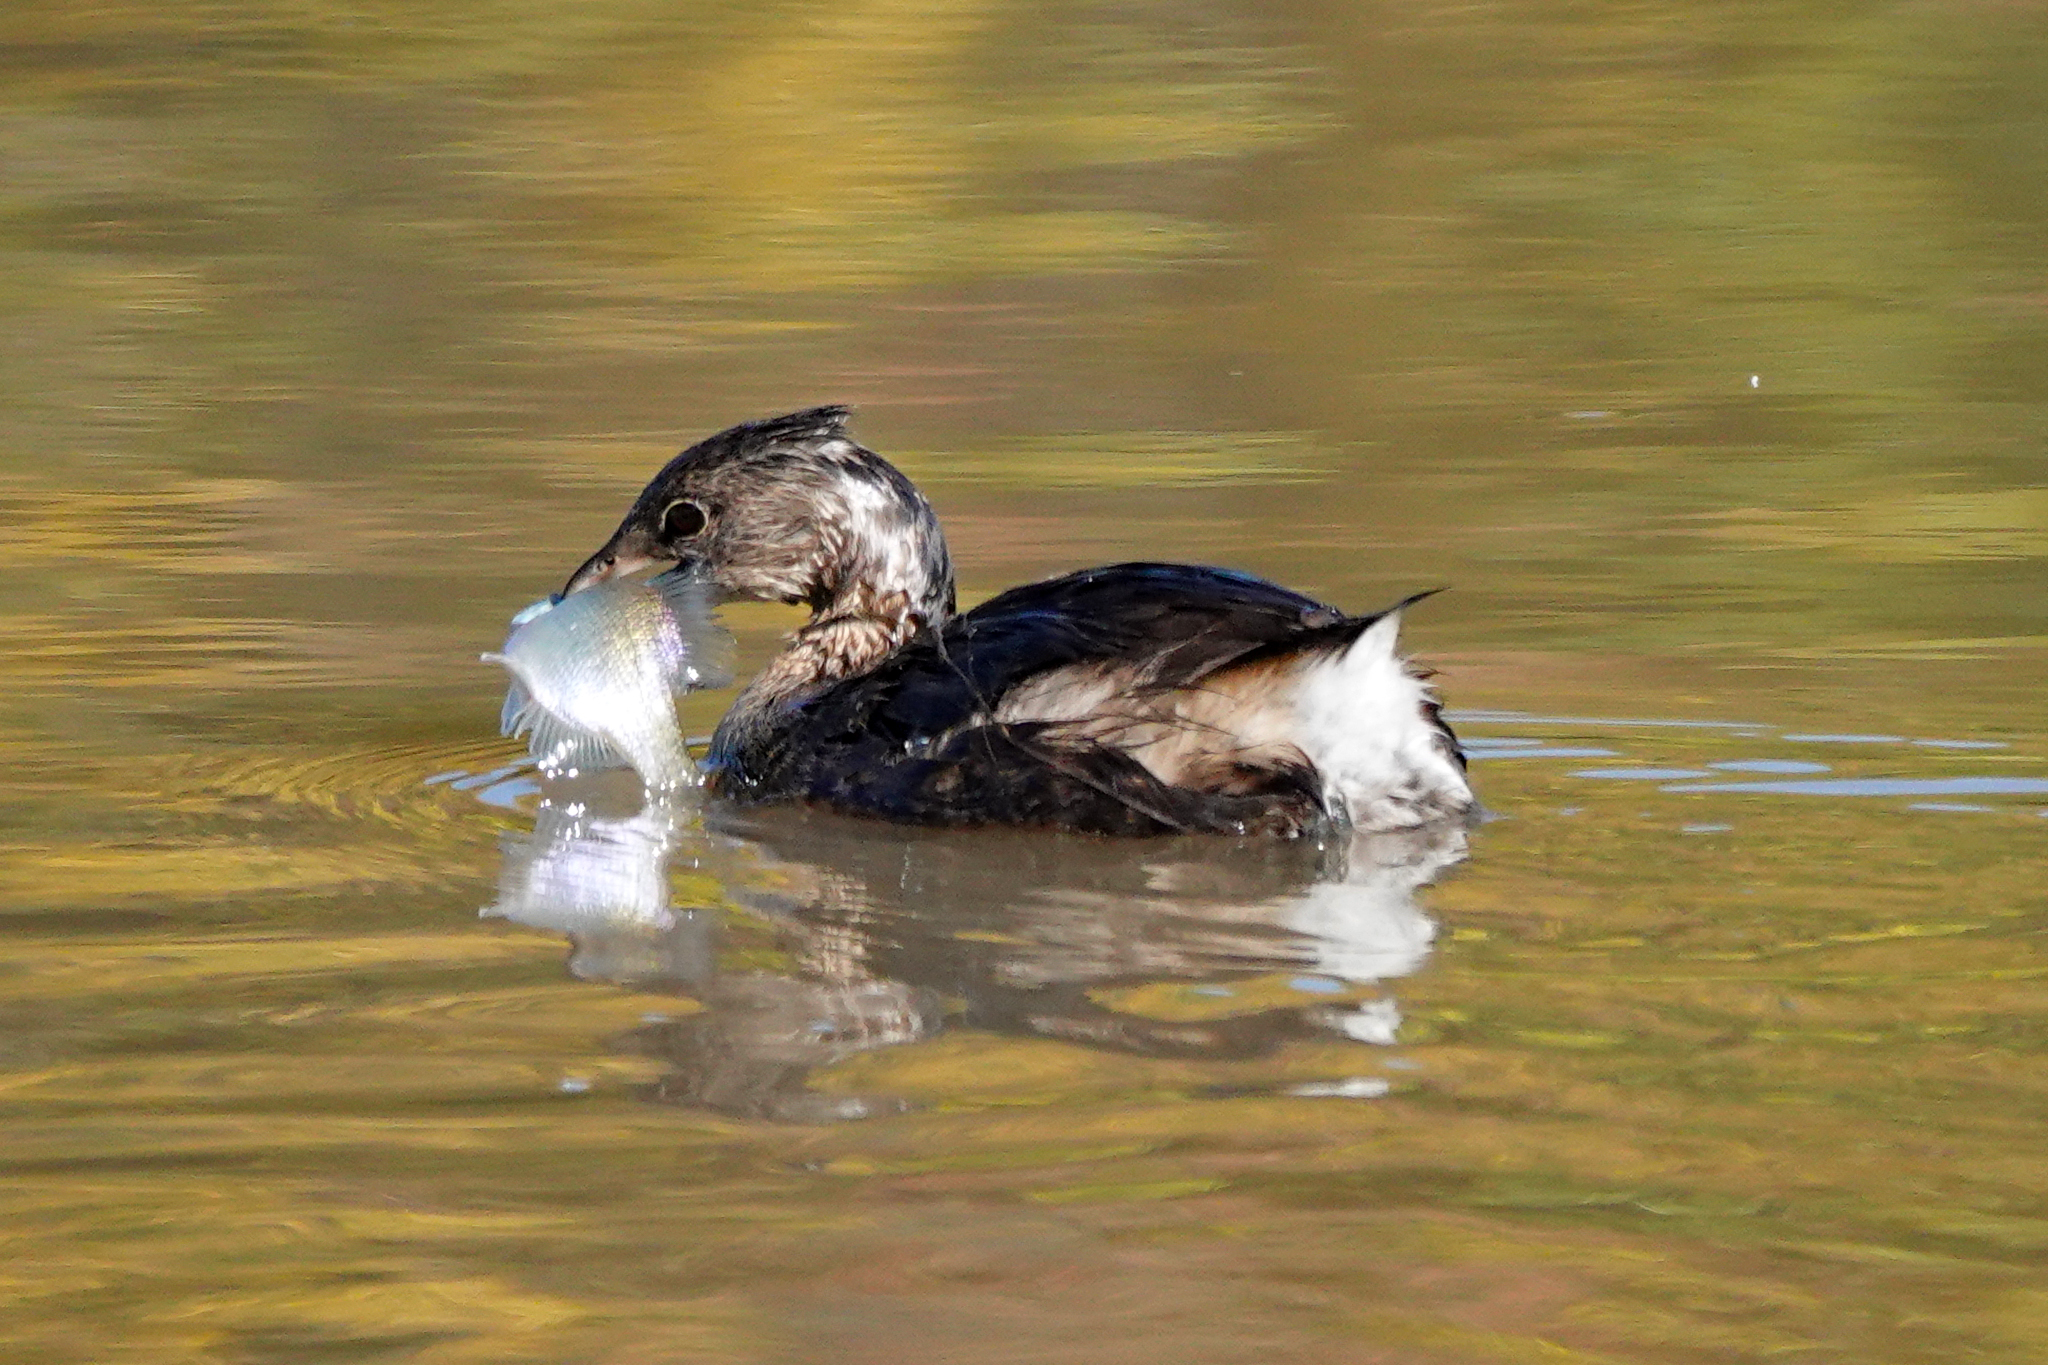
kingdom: Animalia
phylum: Chordata
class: Aves
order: Podicipediformes
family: Podicipedidae
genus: Podilymbus
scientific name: Podilymbus podiceps
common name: Pied-billed grebe
